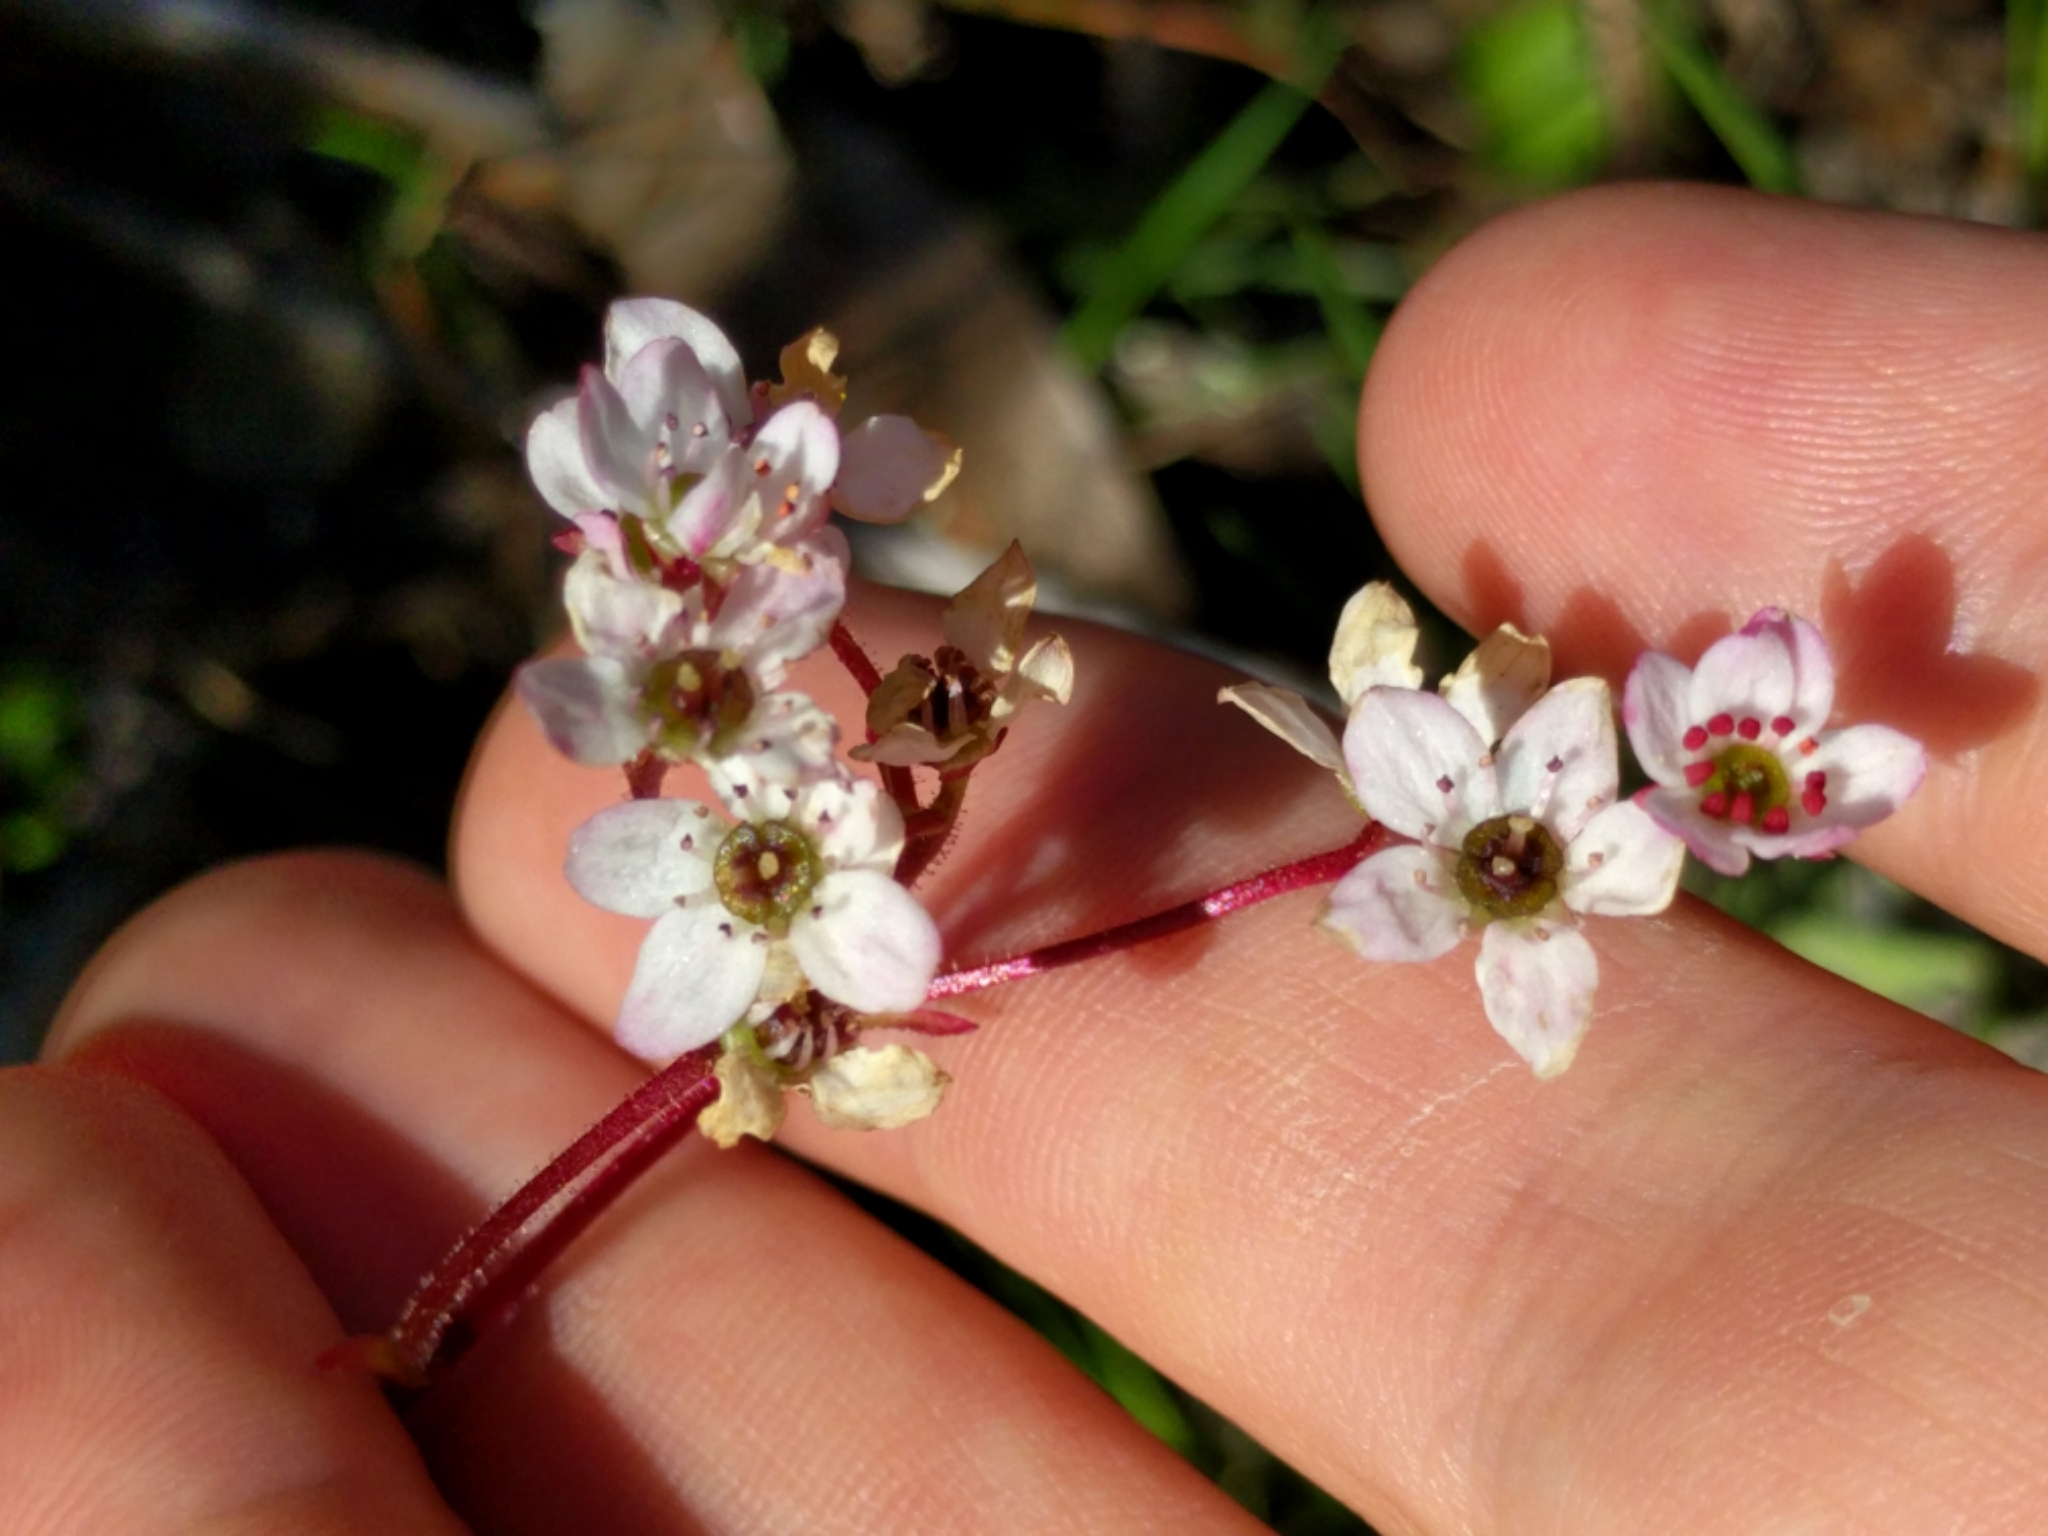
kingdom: Plantae
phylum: Tracheophyta
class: Magnoliopsida
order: Saxifragales
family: Saxifragaceae
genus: Micranthes
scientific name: Micranthes californica
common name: California saxifrage
